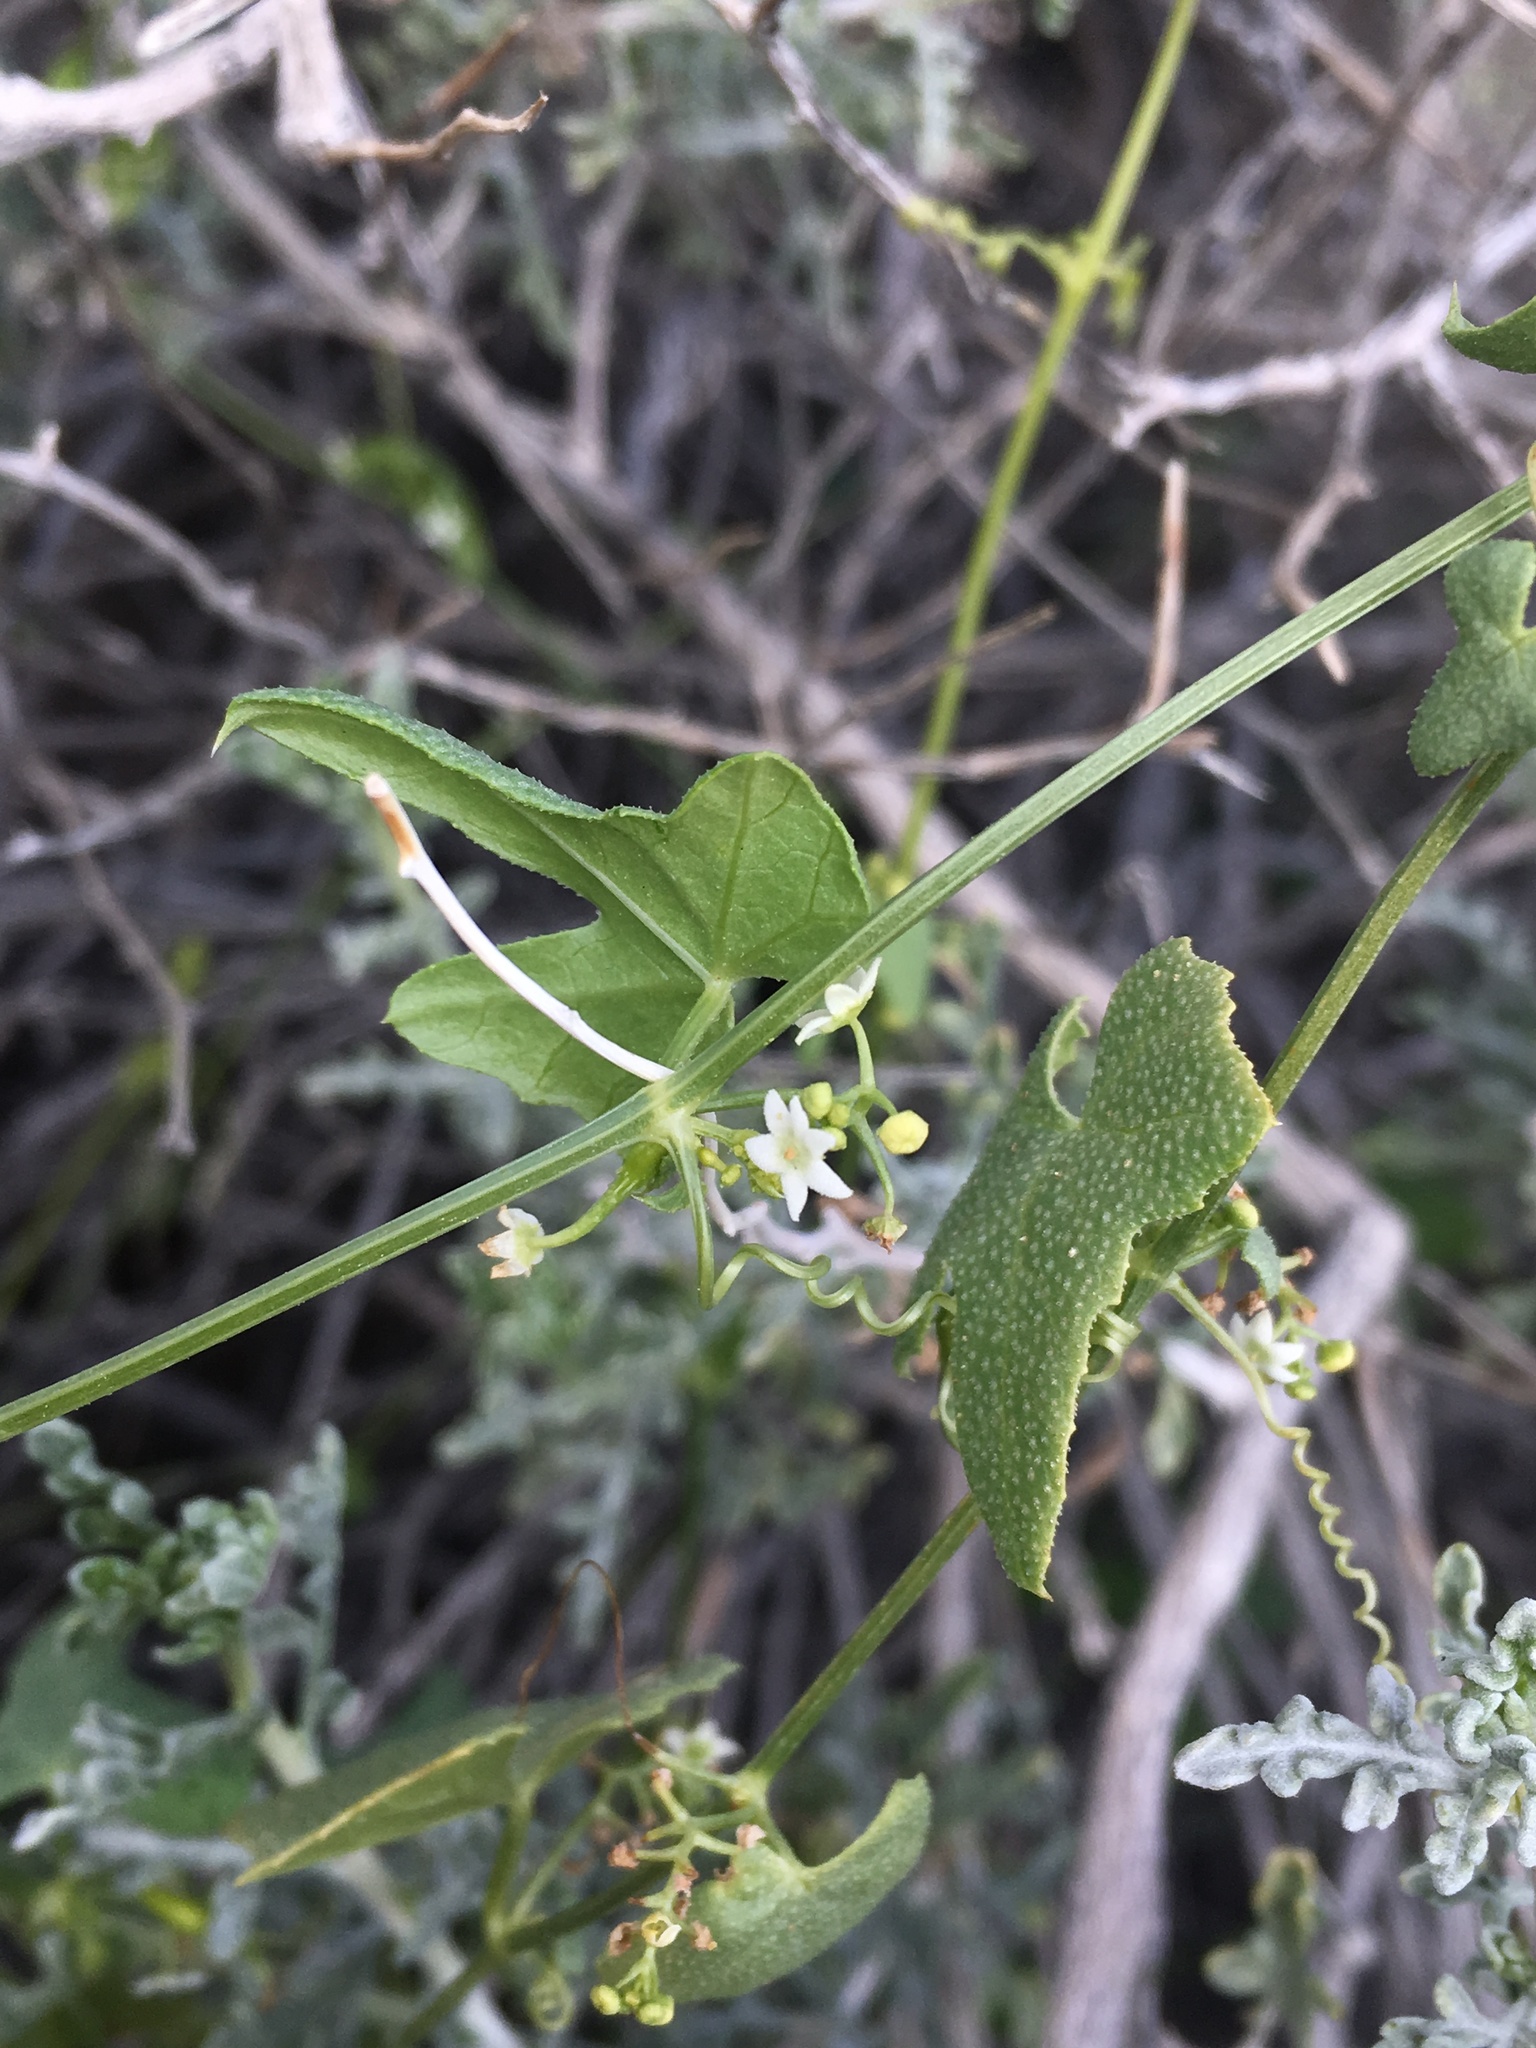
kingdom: Plantae
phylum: Tracheophyta
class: Magnoliopsida
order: Cucurbitales
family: Cucurbitaceae
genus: Echinopepon
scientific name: Echinopepon bigelovii
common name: Desert starvine
